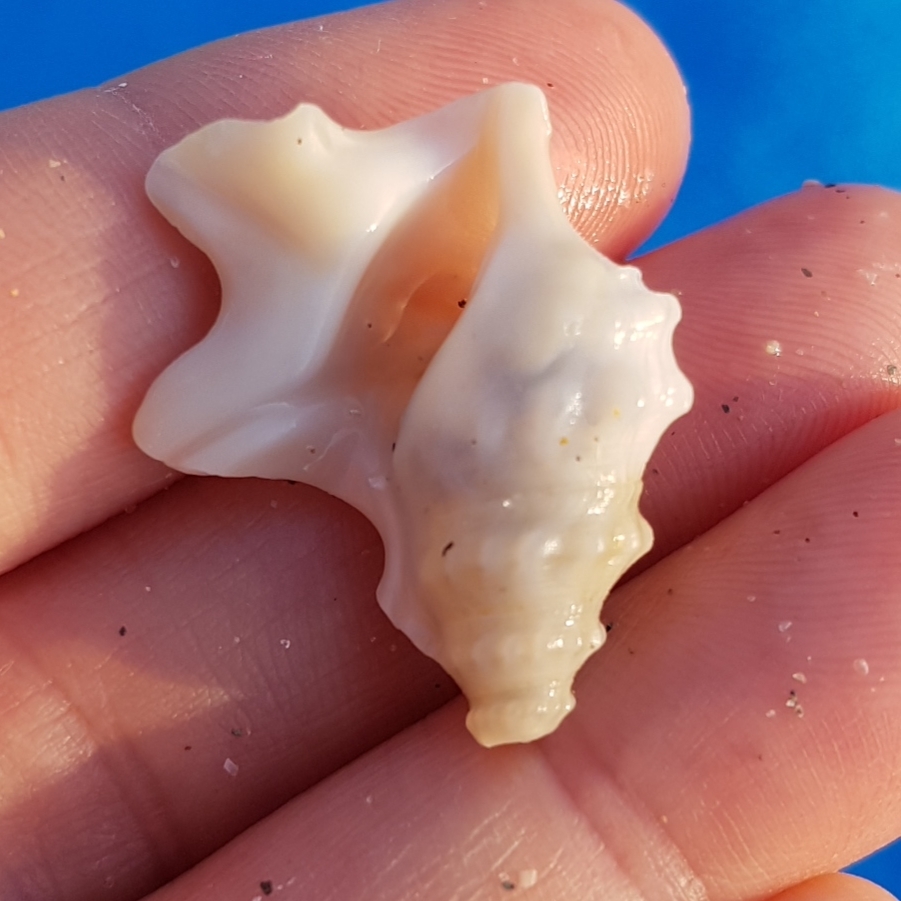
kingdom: Animalia
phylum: Mollusca
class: Gastropoda
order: Littorinimorpha
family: Aporrhaidae
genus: Aporrhais
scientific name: Aporrhais pespelecani
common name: Common pelican’s foot
